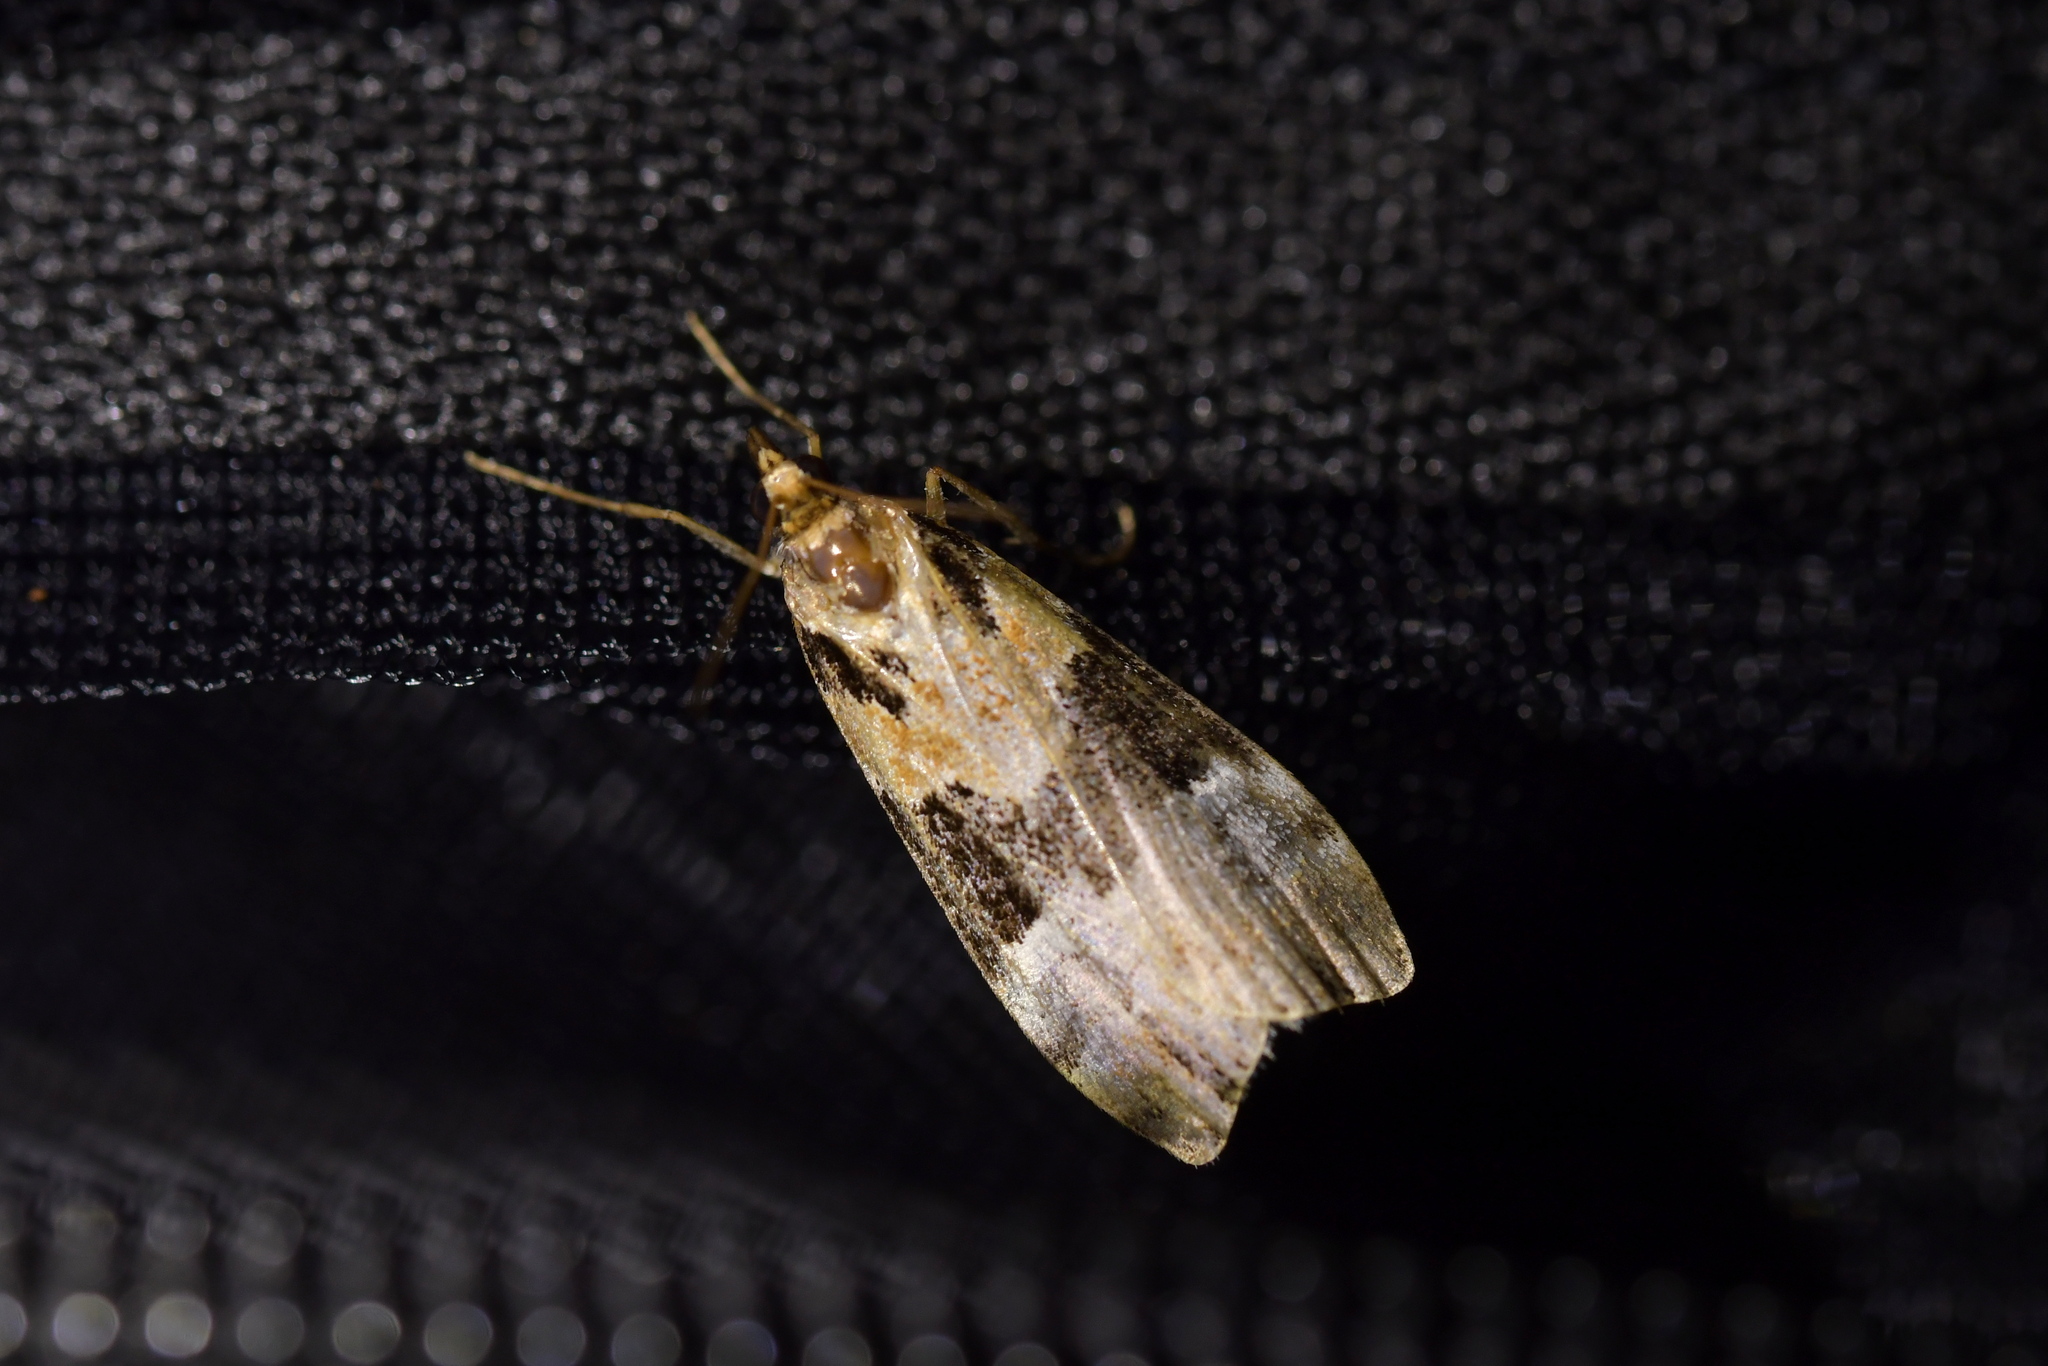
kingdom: Animalia
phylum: Arthropoda
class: Insecta
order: Lepidoptera
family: Crambidae
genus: Eudonia
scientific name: Eudonia aspidota
